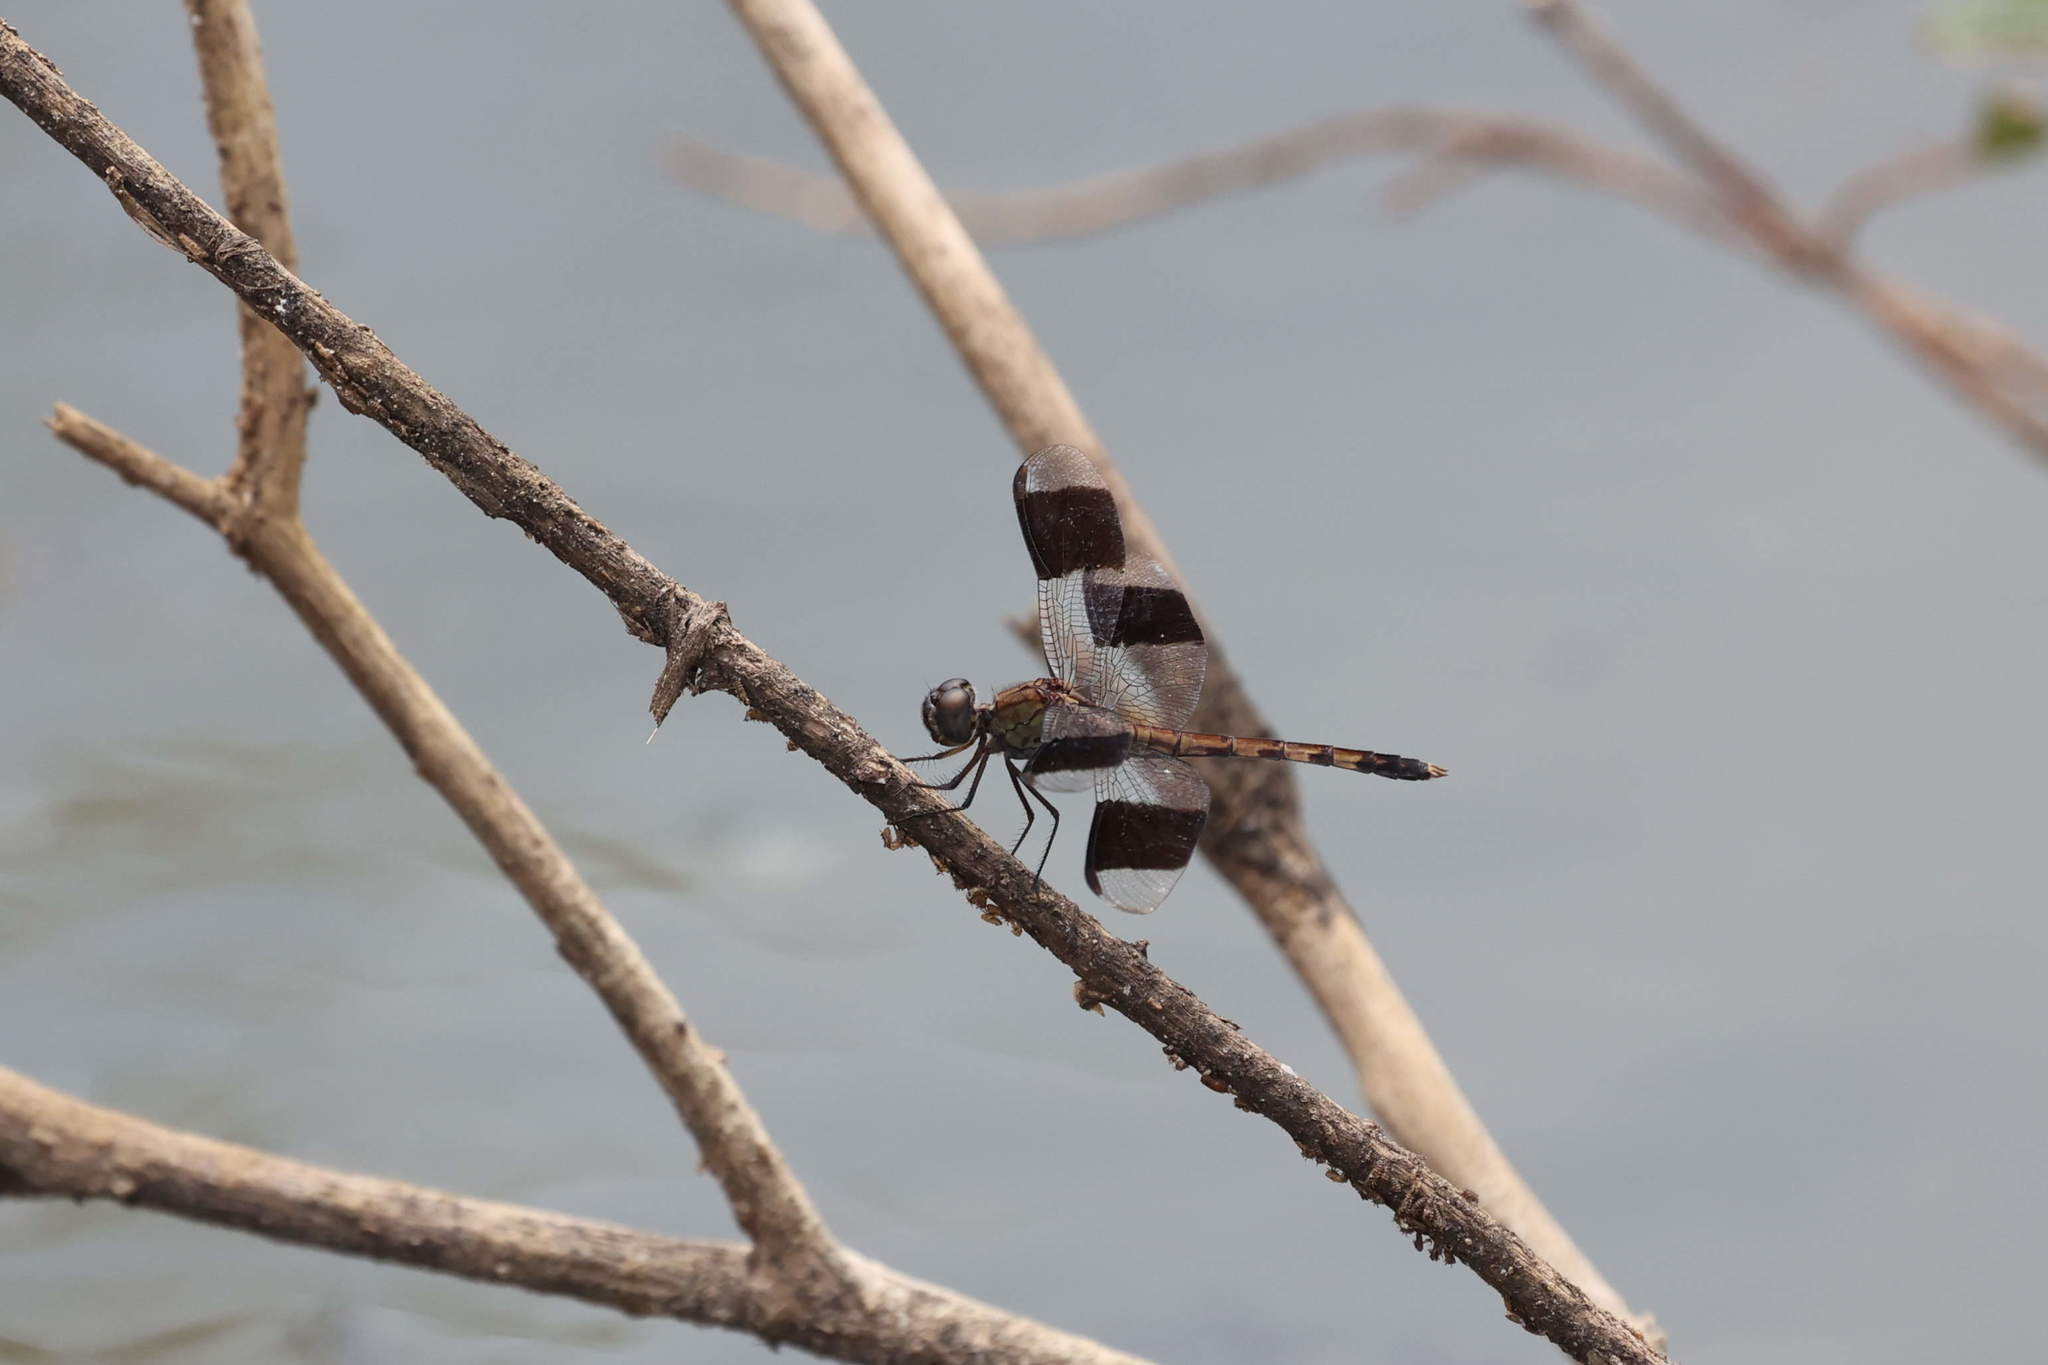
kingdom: Animalia
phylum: Arthropoda
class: Insecta
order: Odonata
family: Libellulidae
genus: Erythrodiplax
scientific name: Erythrodiplax umbrata
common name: Band-winged dragonlet
